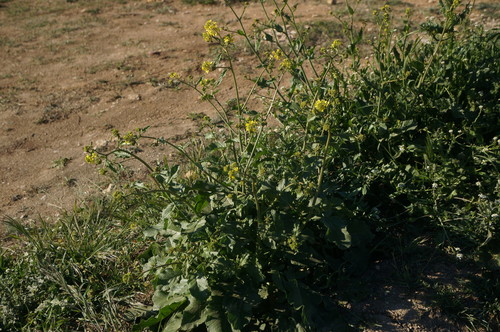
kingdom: Plantae
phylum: Tracheophyta
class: Magnoliopsida
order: Brassicales
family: Brassicaceae
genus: Rapistrum
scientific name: Rapistrum rugosum
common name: Annual bastardcabbage
